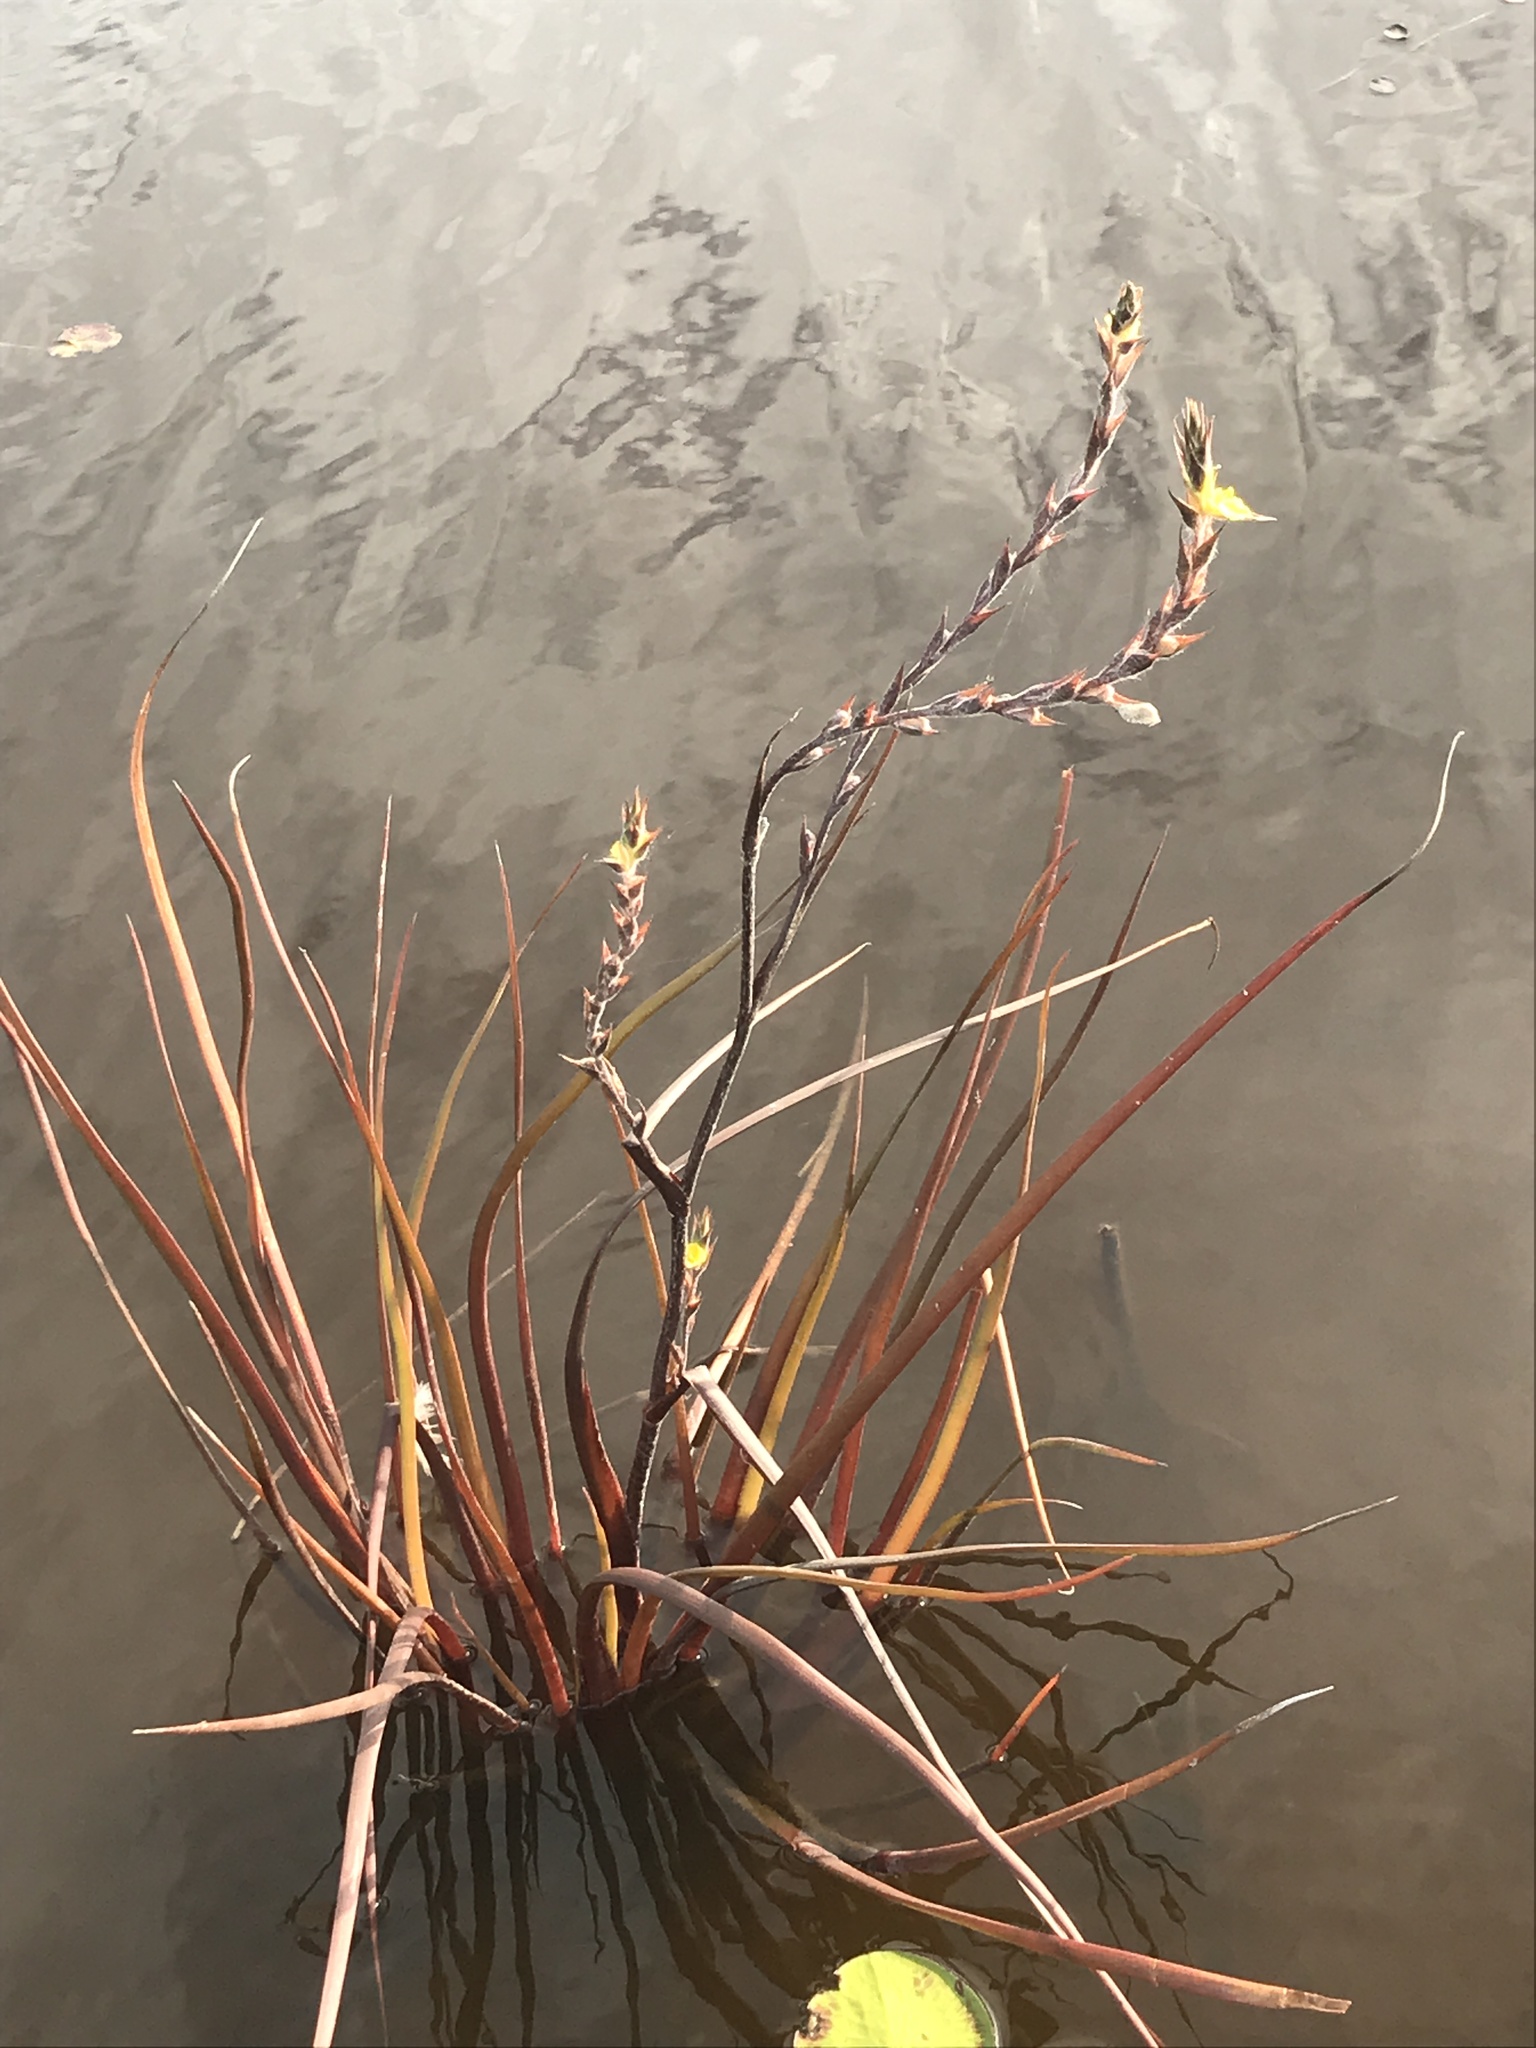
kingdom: Plantae
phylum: Tracheophyta
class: Liliopsida
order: Commelinales
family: Philydraceae
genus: Philydrum
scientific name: Philydrum lanuginosum
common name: Woolly frog's mouth
